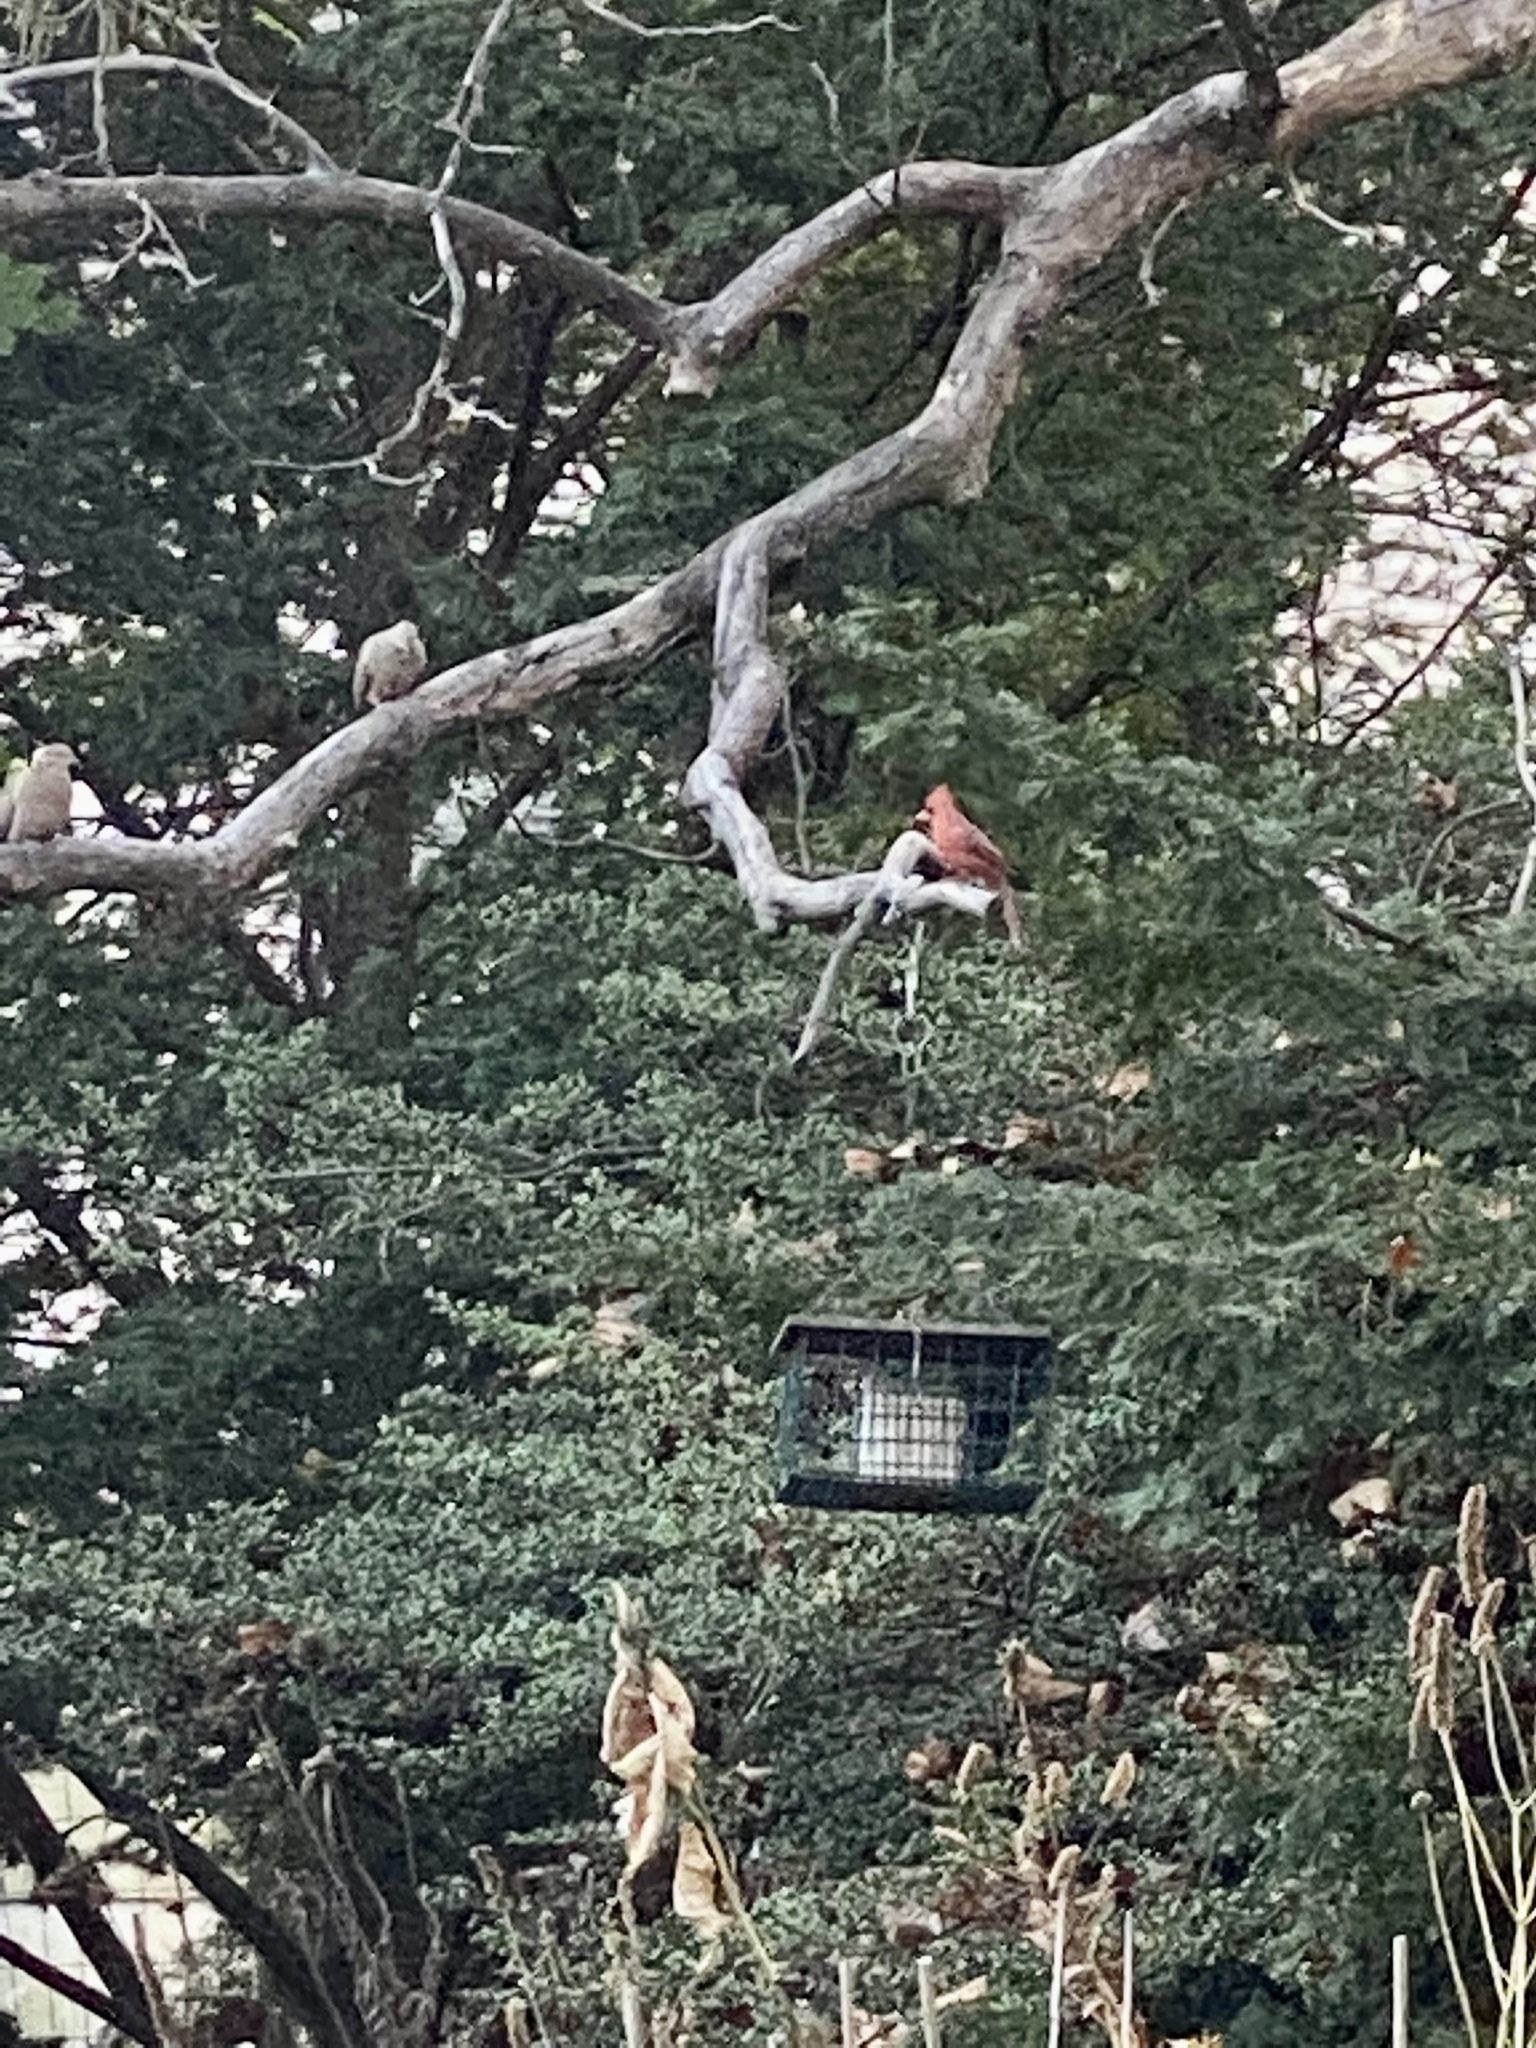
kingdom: Animalia
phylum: Chordata
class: Aves
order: Passeriformes
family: Cardinalidae
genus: Cardinalis
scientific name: Cardinalis cardinalis
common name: Northern cardinal
